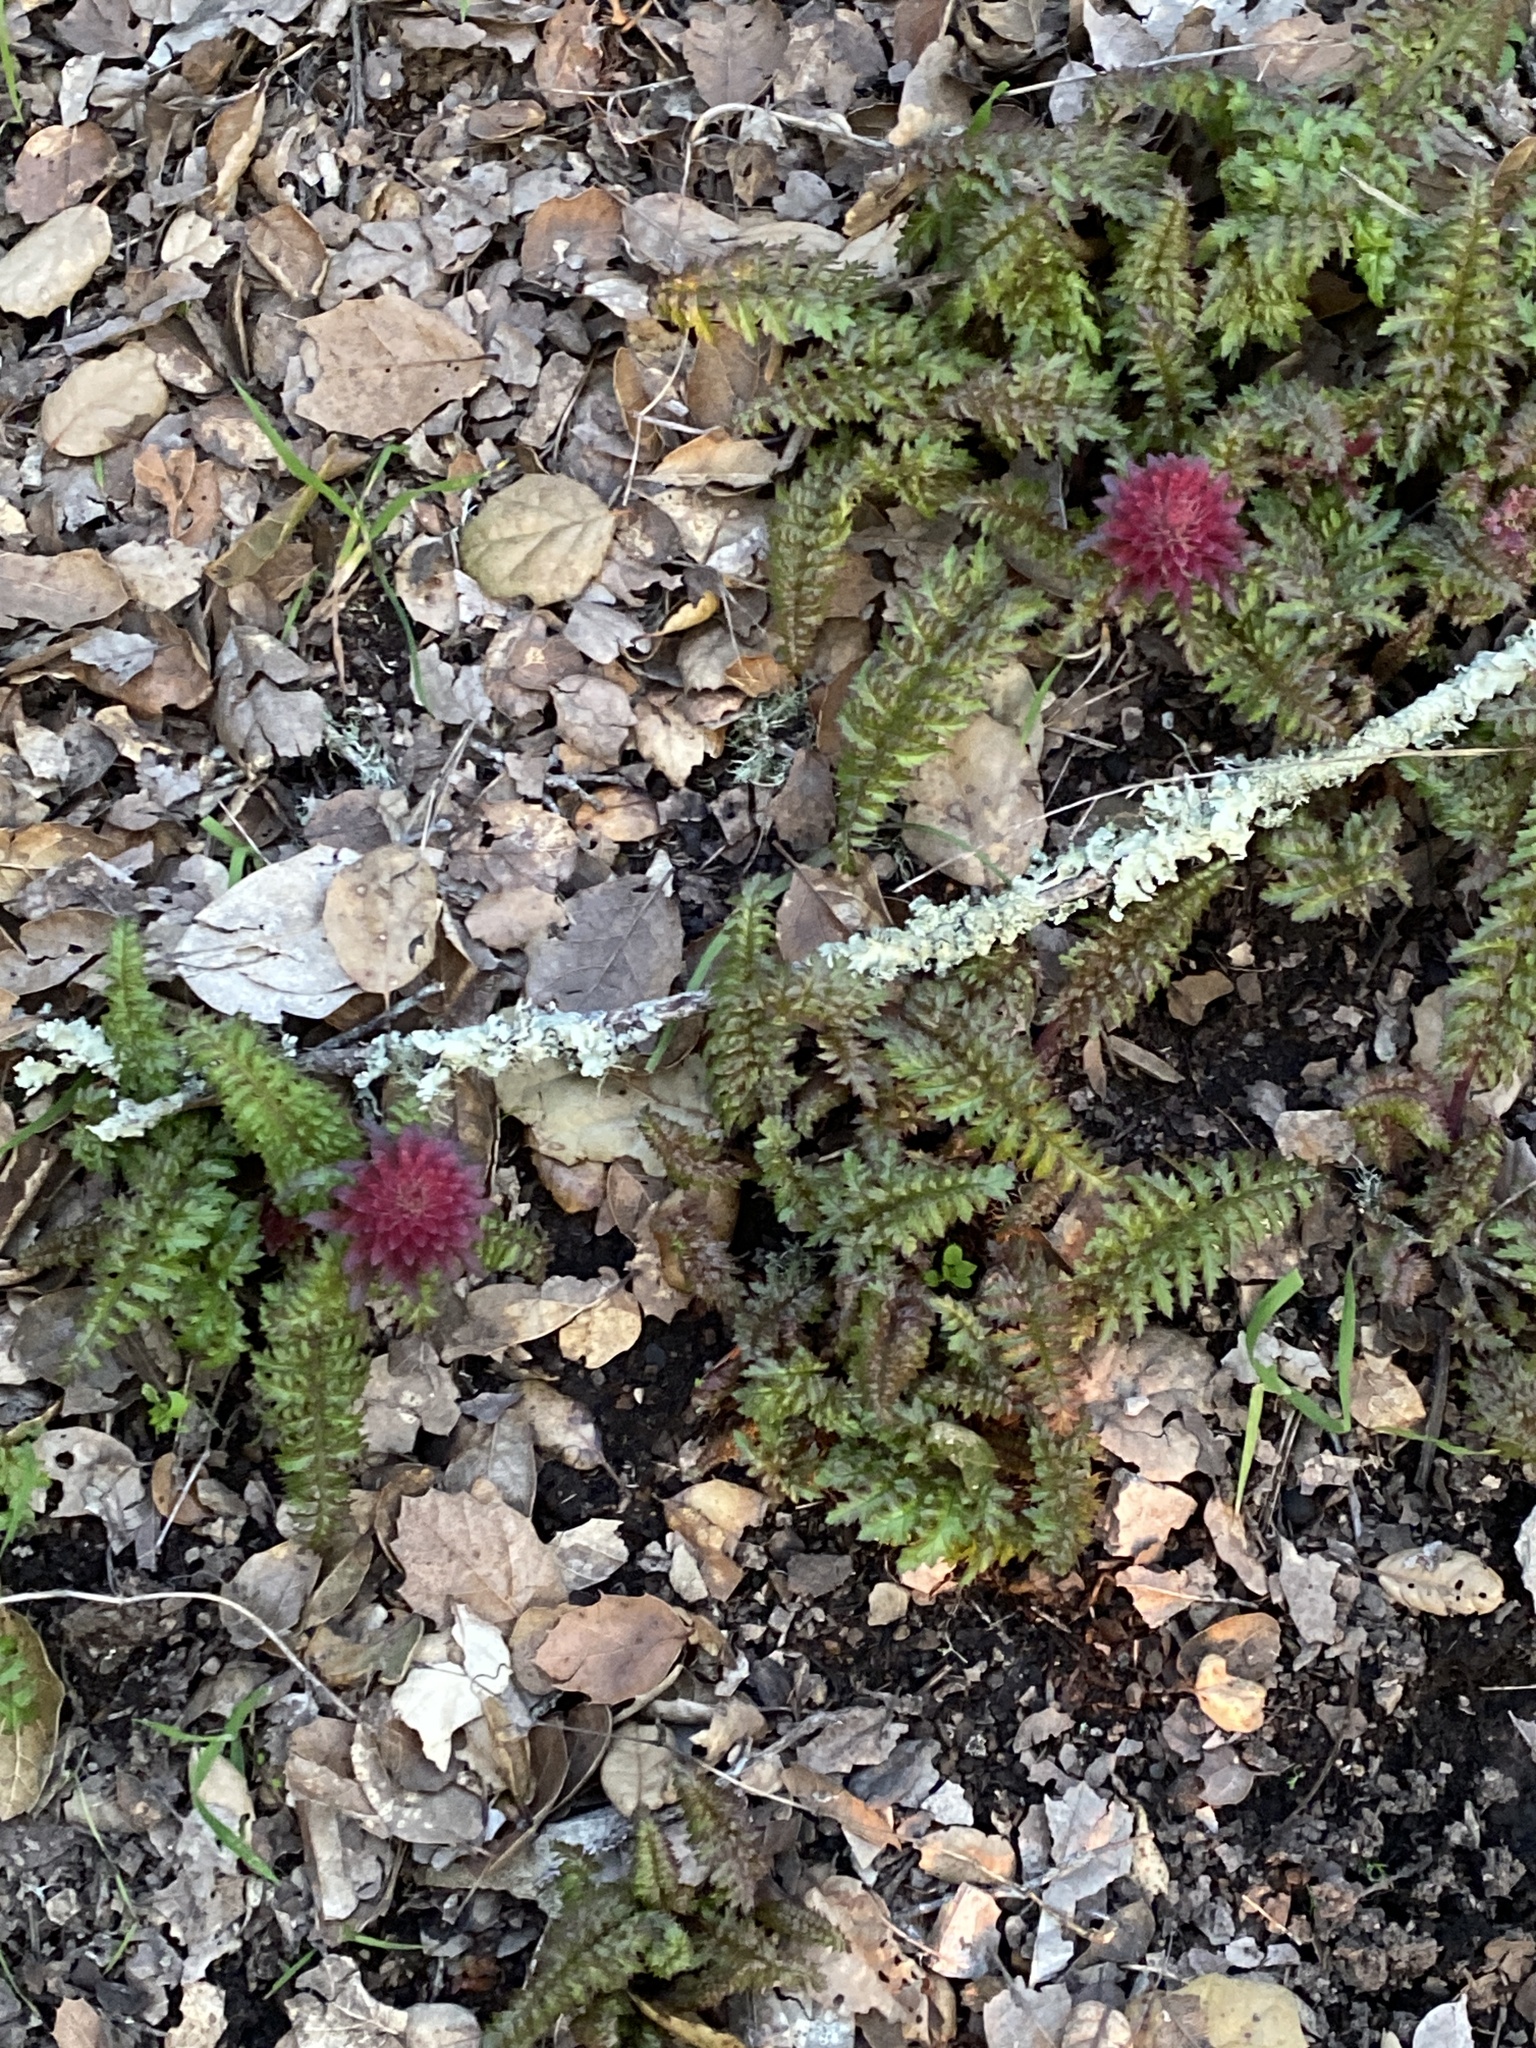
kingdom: Plantae
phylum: Tracheophyta
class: Magnoliopsida
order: Lamiales
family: Orobanchaceae
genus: Pedicularis
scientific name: Pedicularis densiflora
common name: Indian warrior
